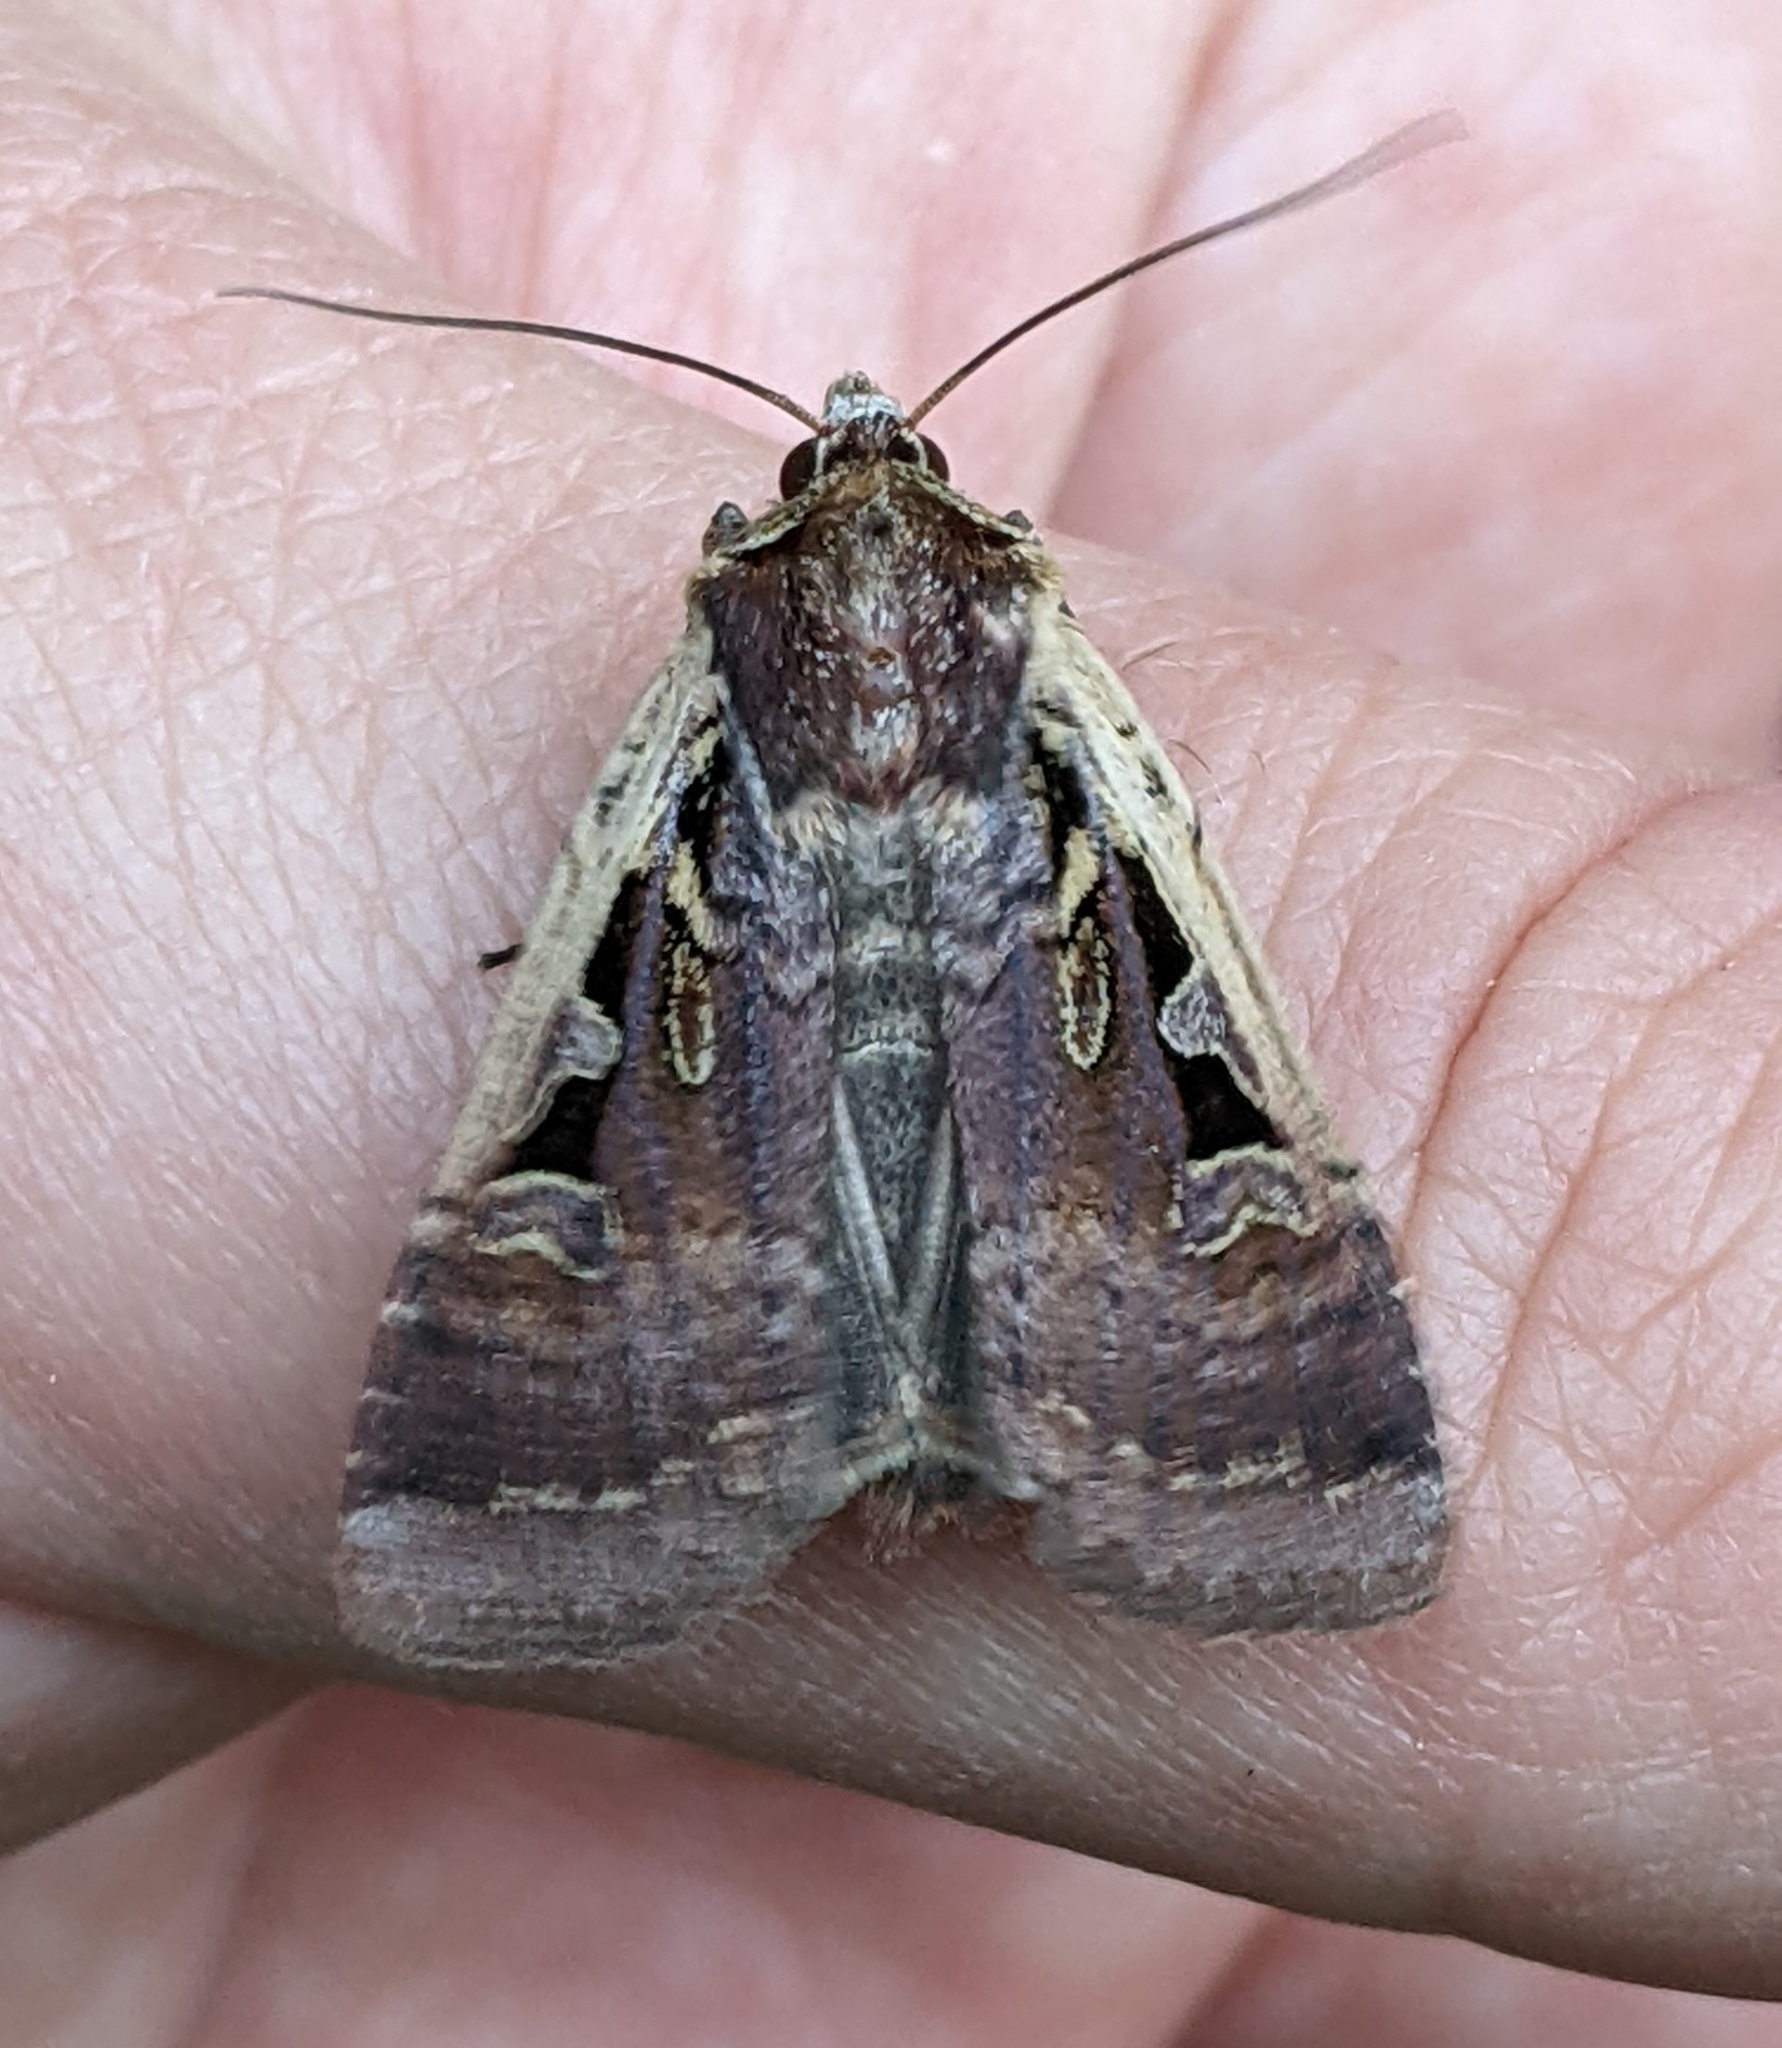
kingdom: Animalia
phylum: Arthropoda
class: Insecta
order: Lepidoptera
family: Noctuidae
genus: Parabagrotis
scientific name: Parabagrotis sulinaris
